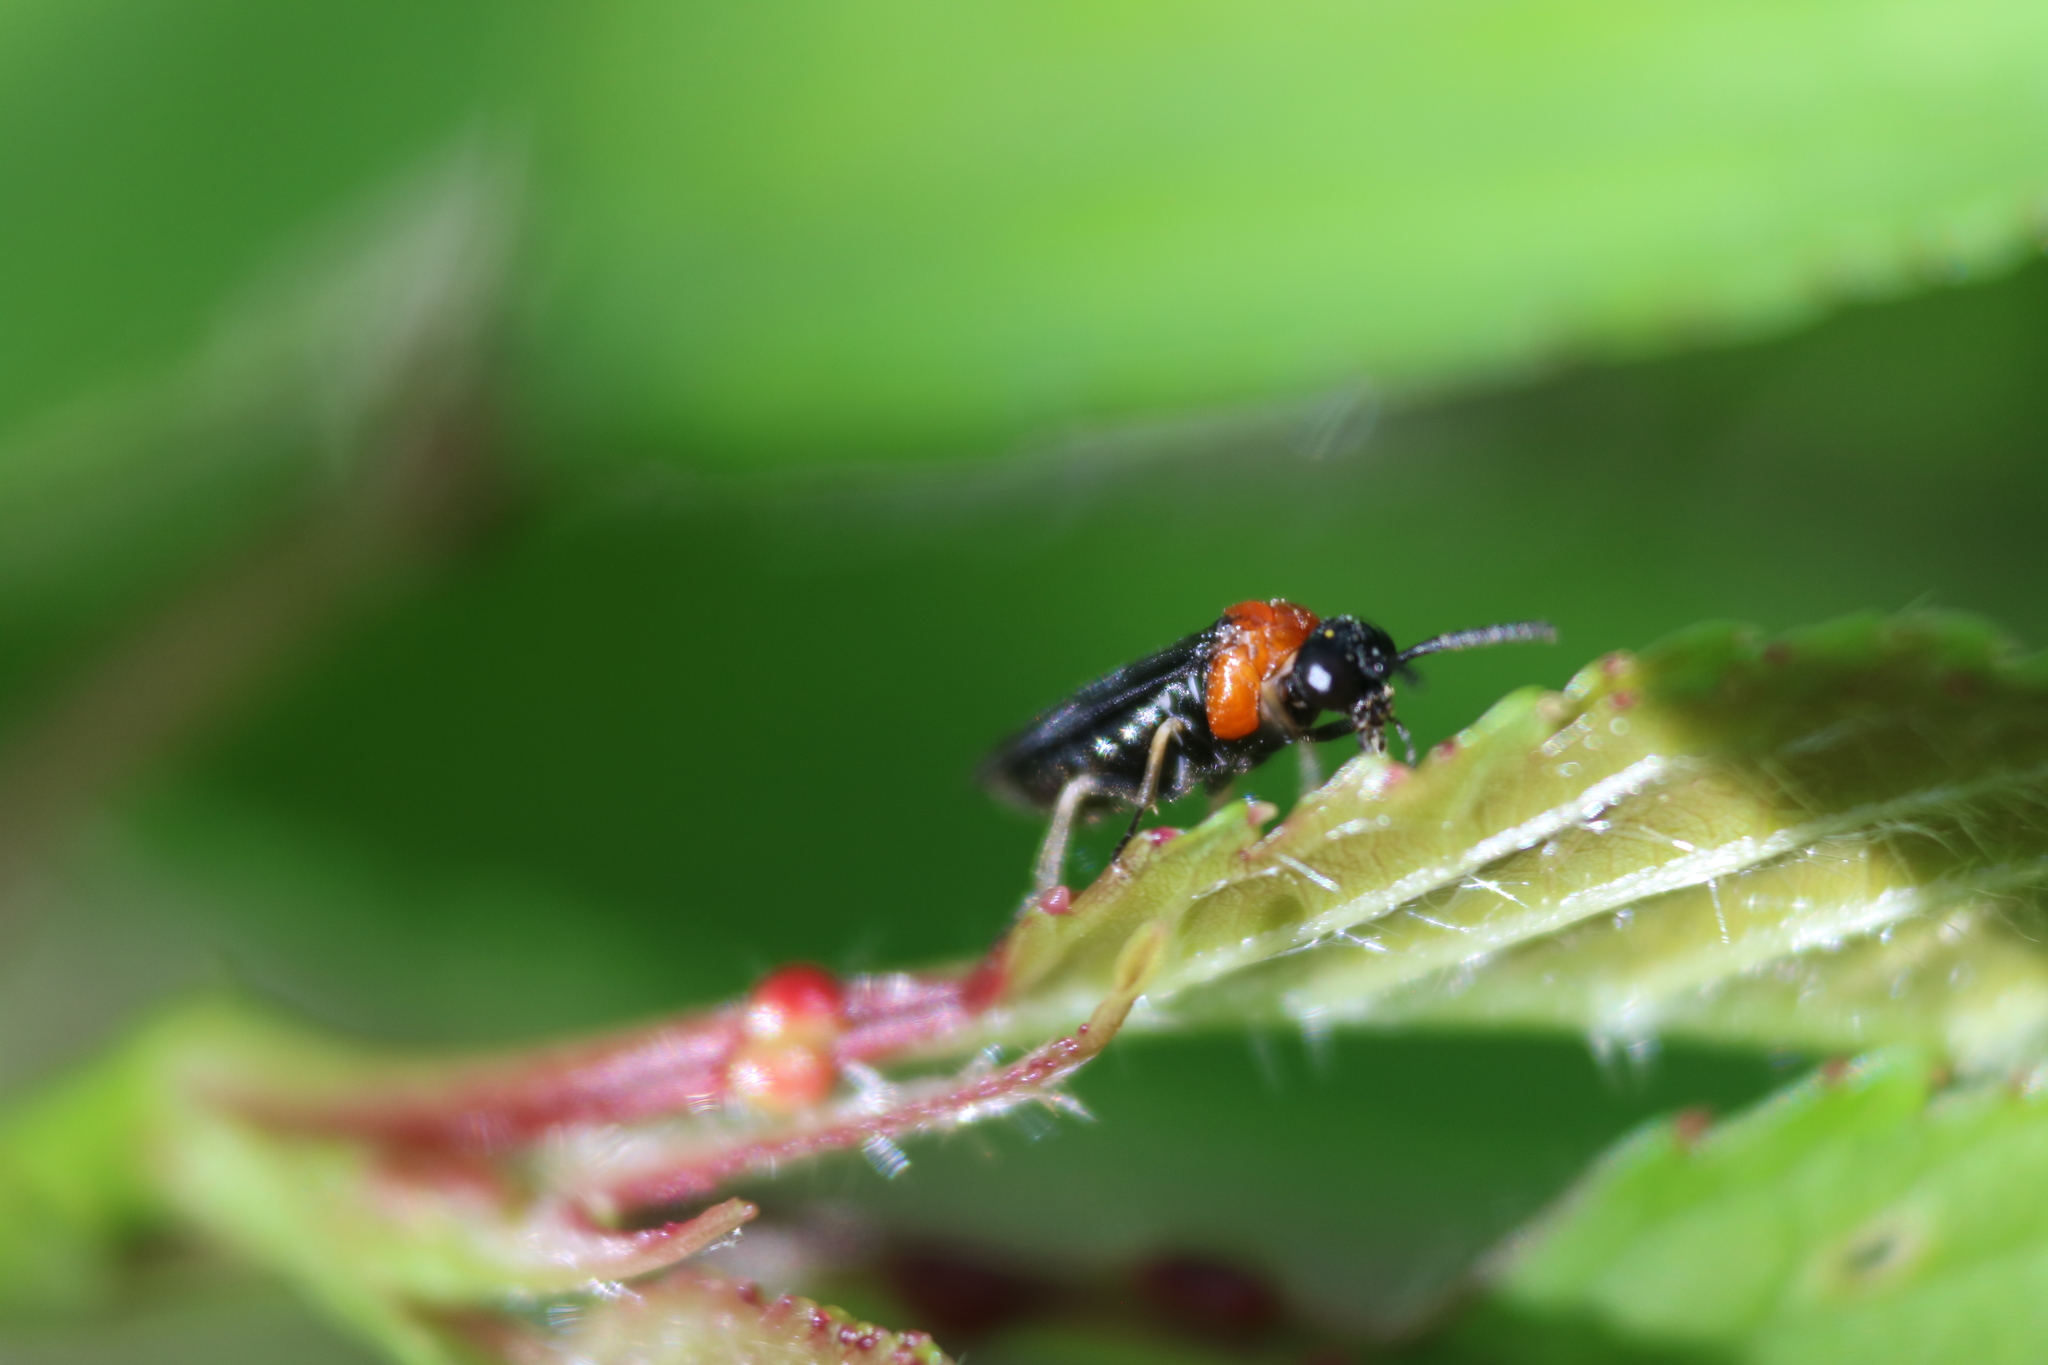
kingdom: Animalia
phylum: Arthropoda
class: Insecta
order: Hymenoptera
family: Tenthredinidae
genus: Eutomostethus
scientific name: Eutomostethus ephippium
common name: Tenthredid wasp
